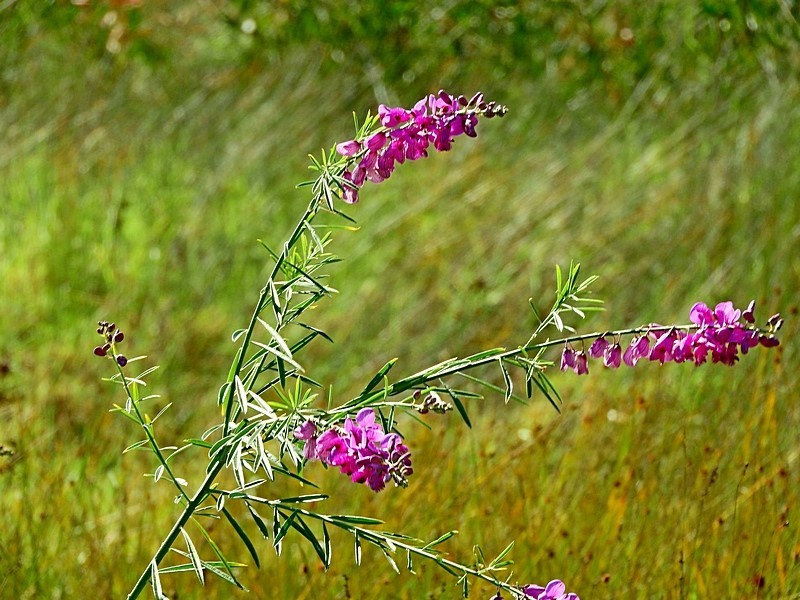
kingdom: Plantae
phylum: Tracheophyta
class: Magnoliopsida
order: Fabales
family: Polygalaceae
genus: Polygala
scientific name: Polygala virgata
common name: Milkwort
